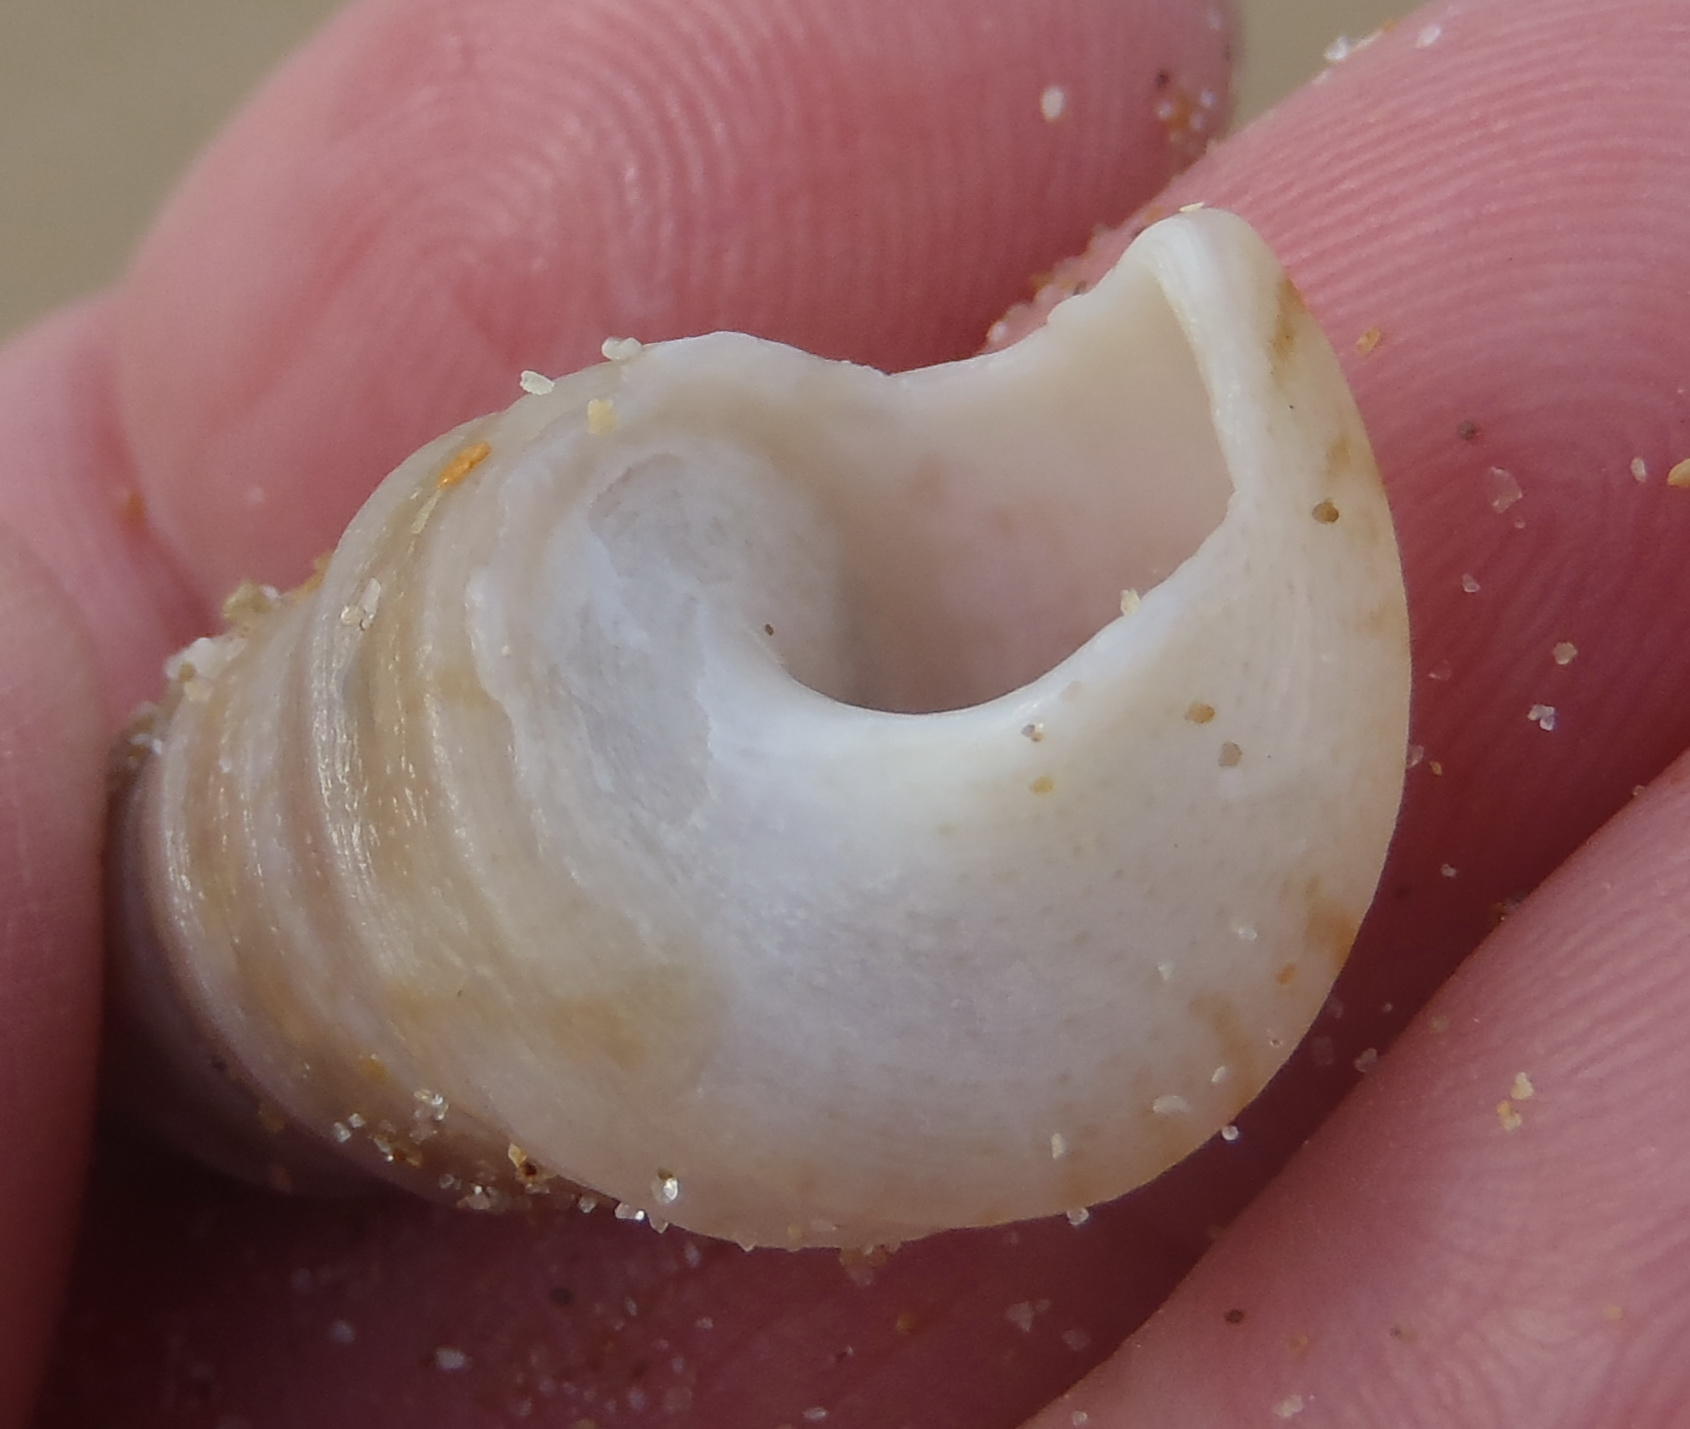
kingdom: Animalia
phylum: Mollusca
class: Gastropoda
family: Turritellidae
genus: Turritella
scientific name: Turritella carinifera
